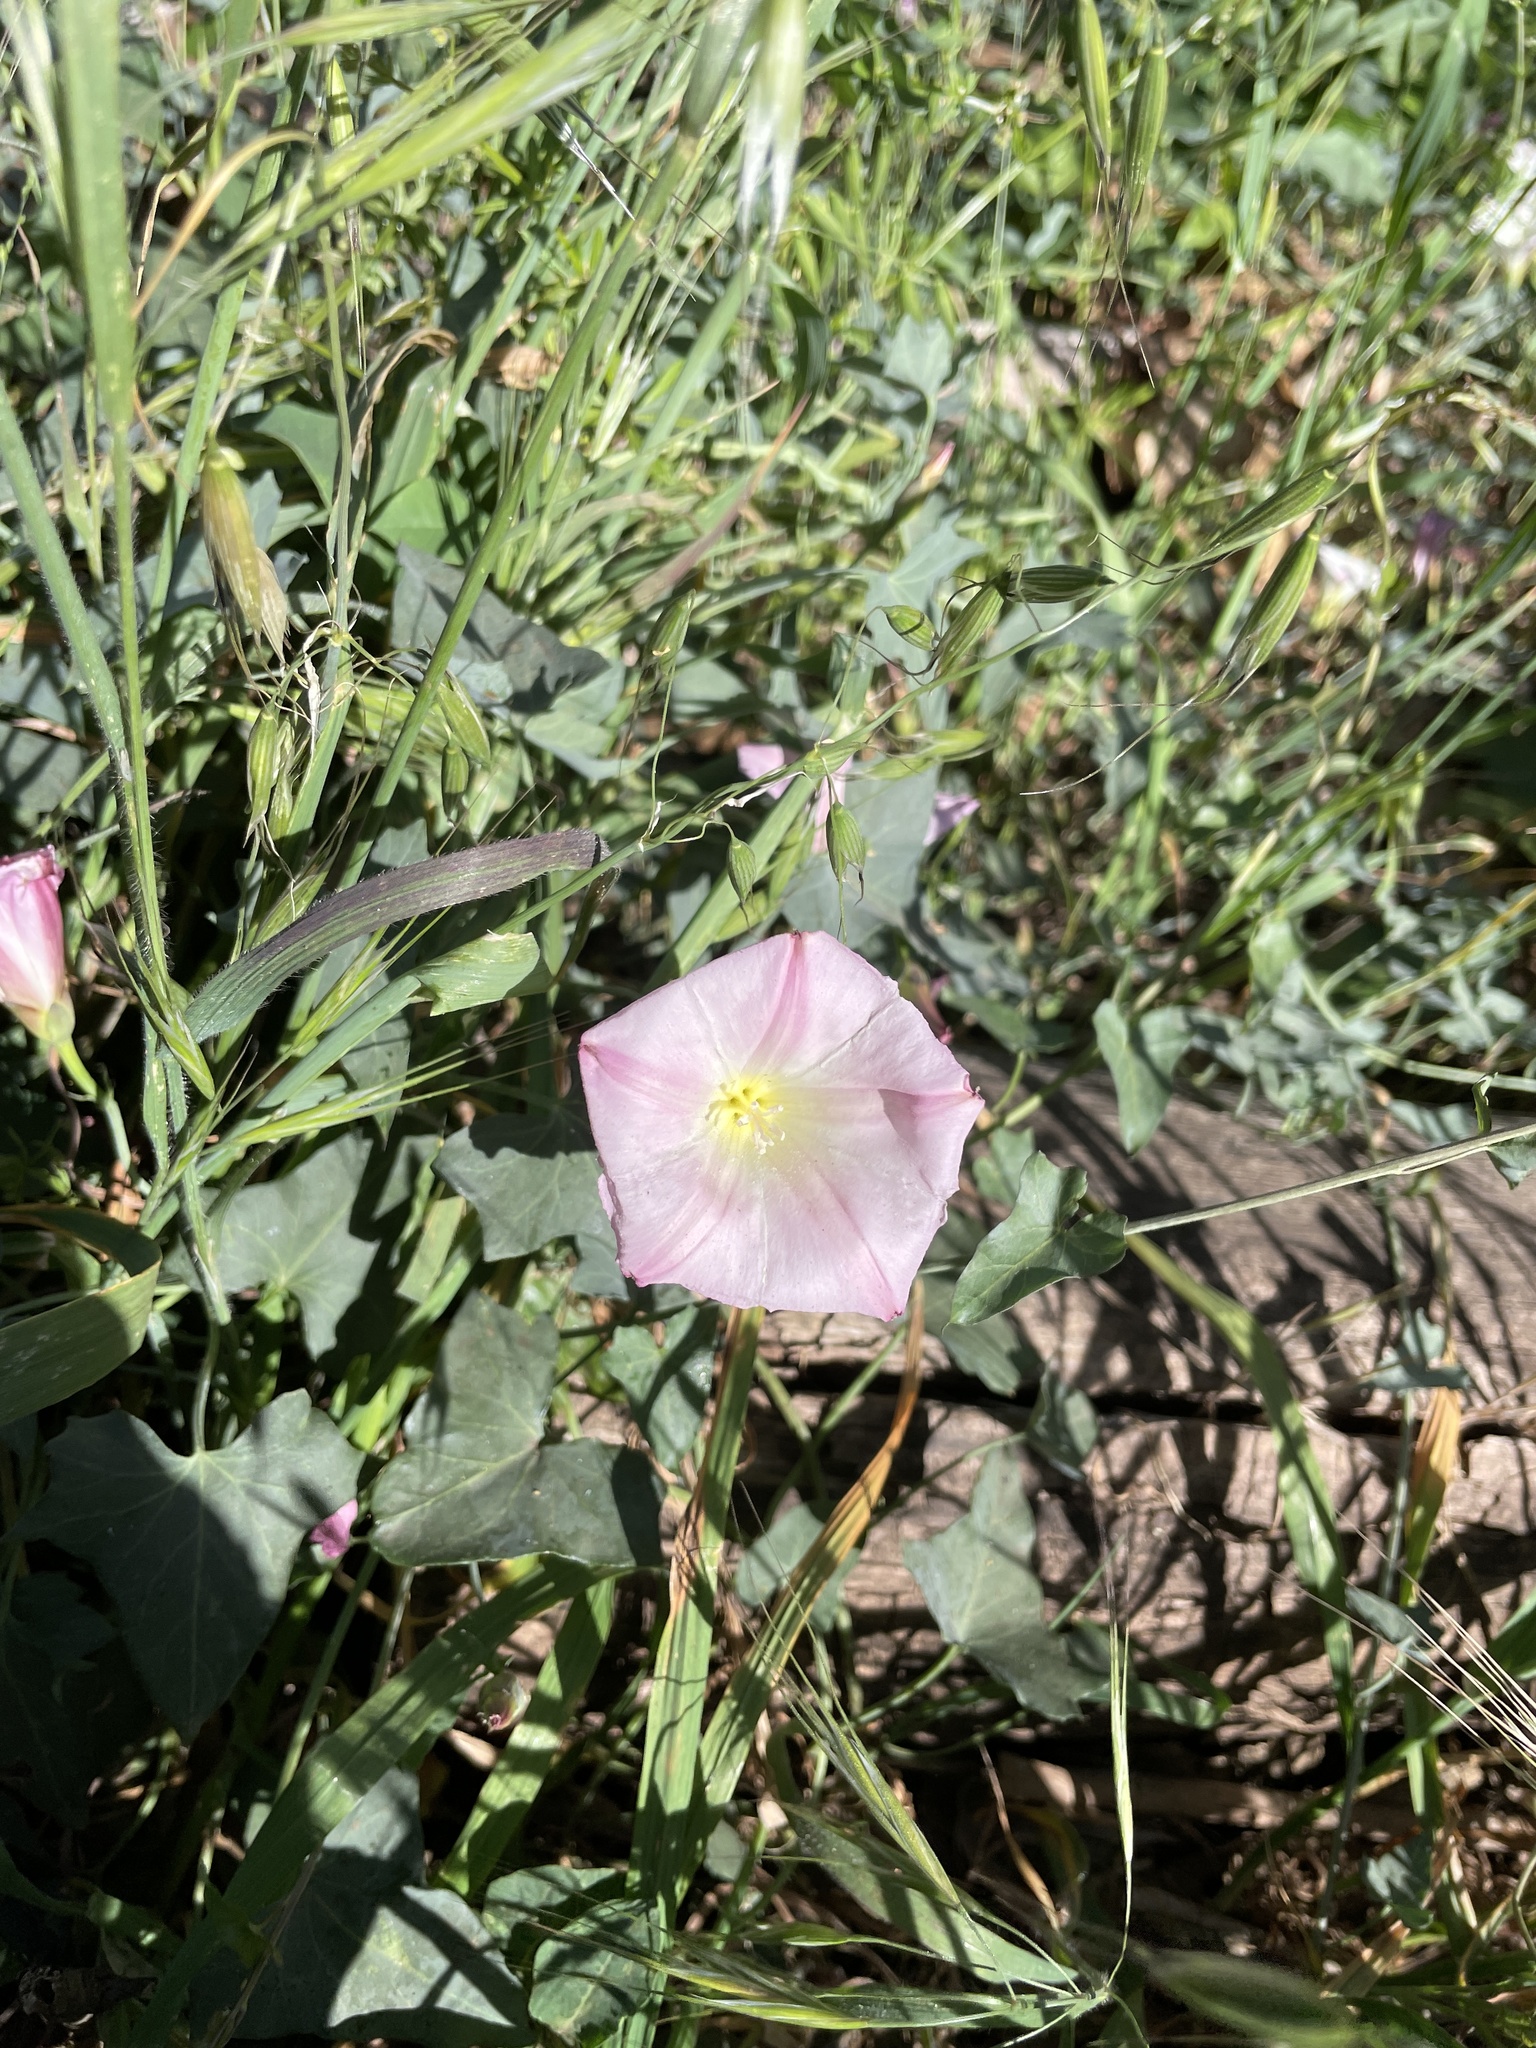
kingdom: Plantae
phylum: Tracheophyta
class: Magnoliopsida
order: Solanales
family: Convolvulaceae
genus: Calystegia
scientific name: Calystegia purpurata
